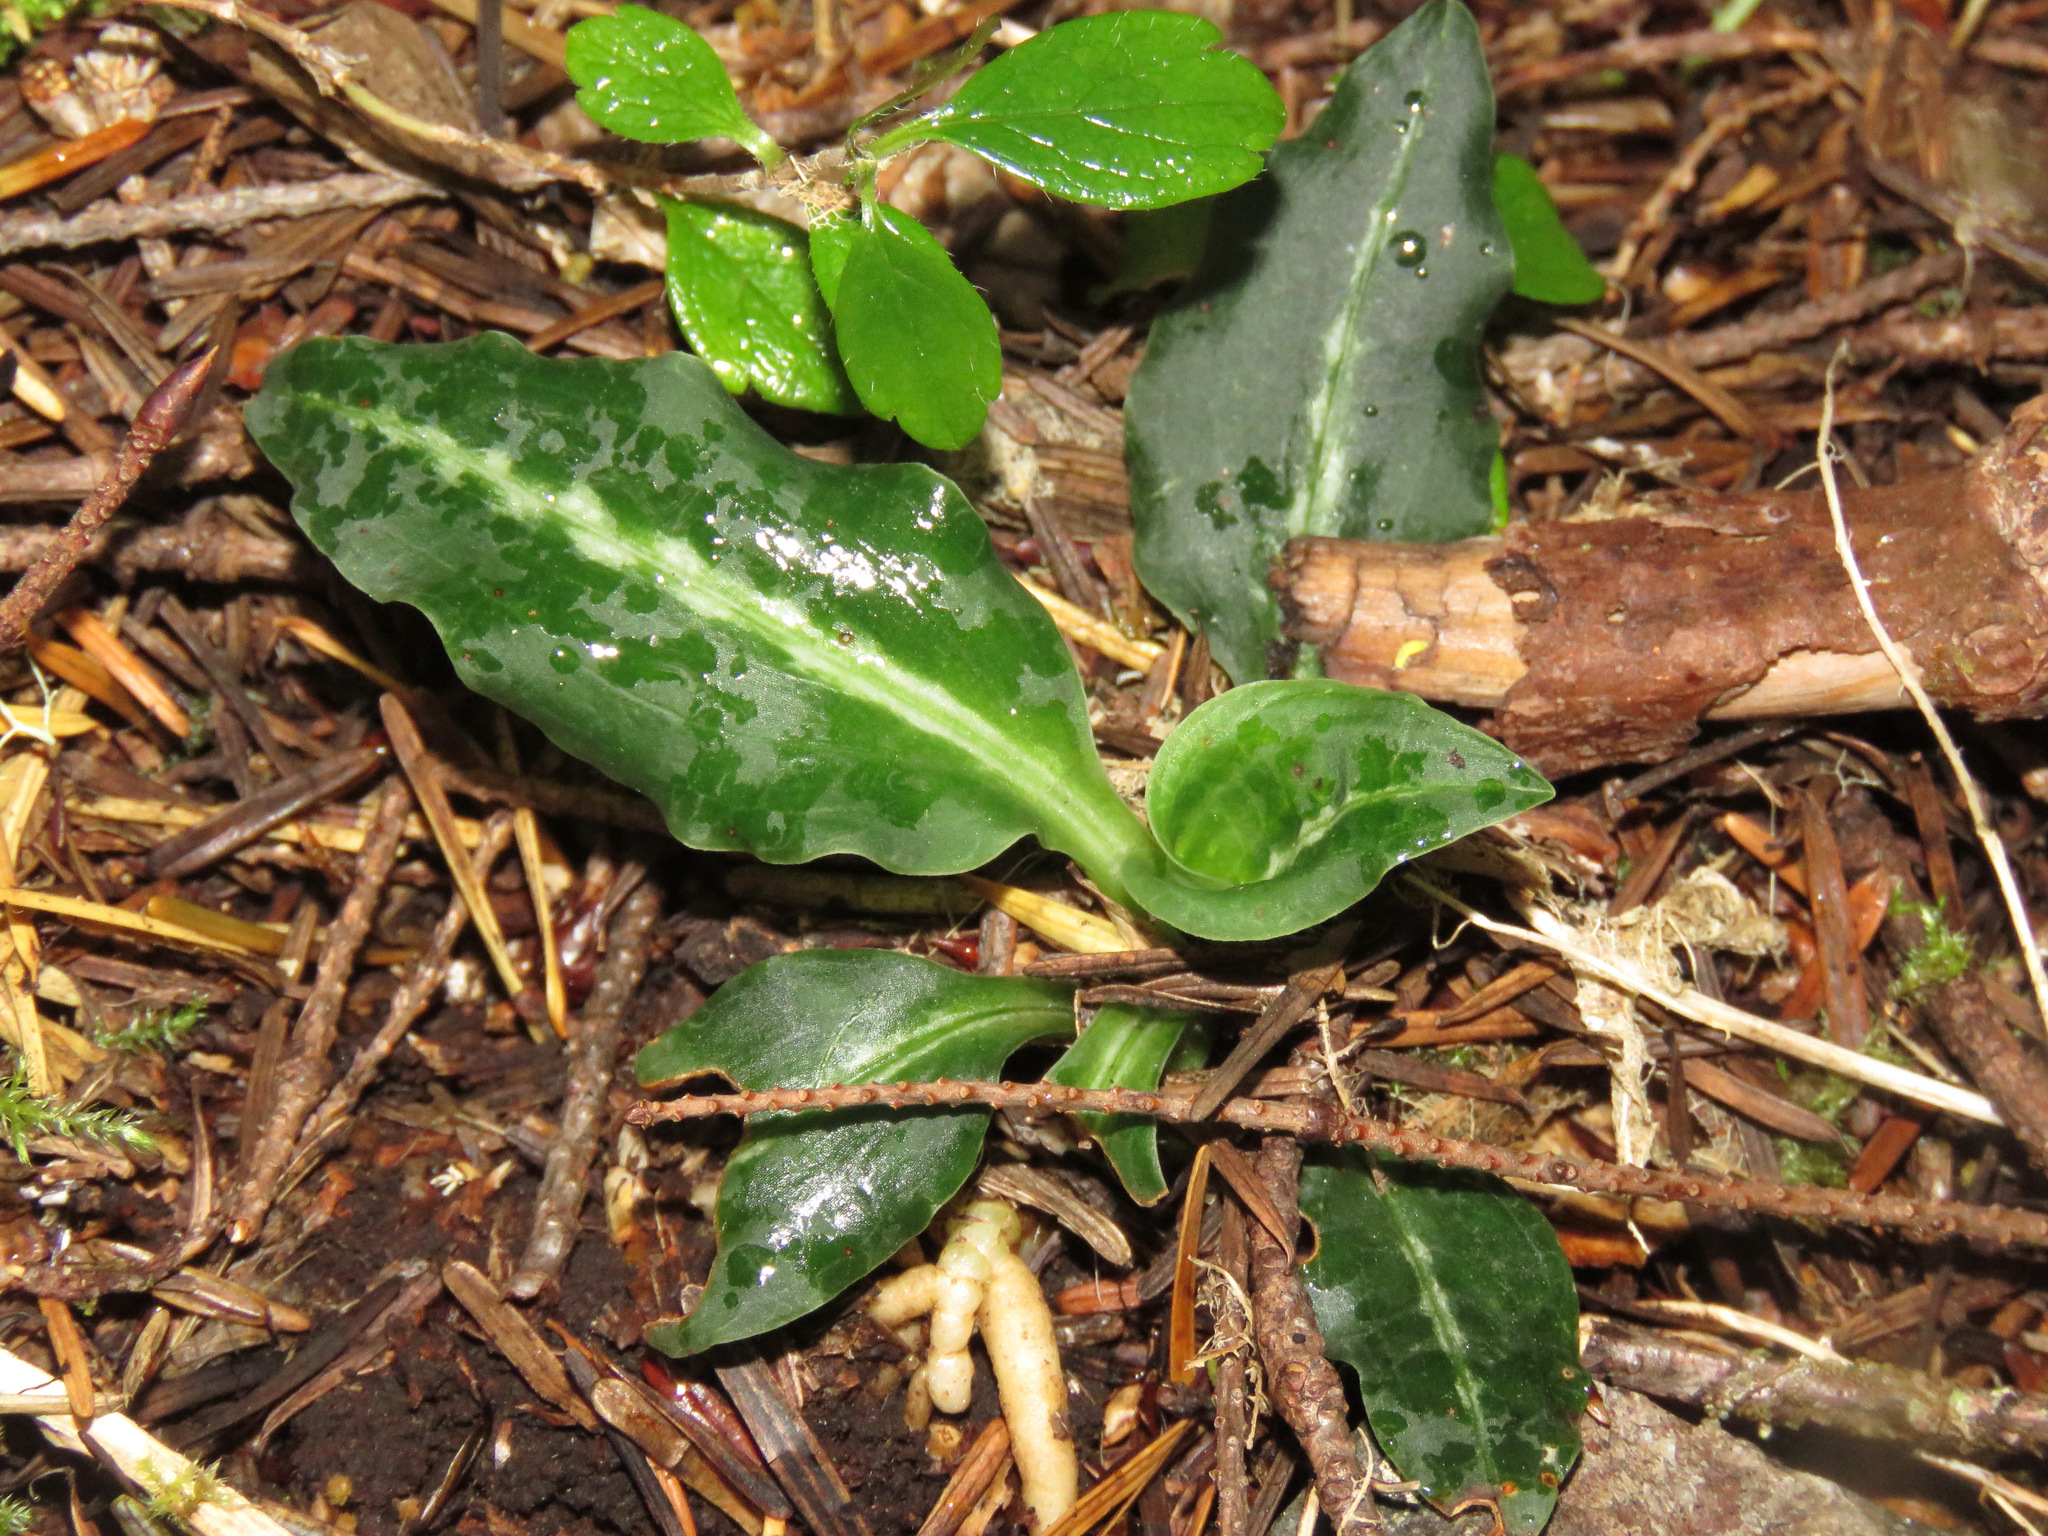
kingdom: Plantae
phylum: Tracheophyta
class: Liliopsida
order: Asparagales
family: Orchidaceae
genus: Goodyera
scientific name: Goodyera oblongifolia
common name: Giant rattlesnake-plantain
